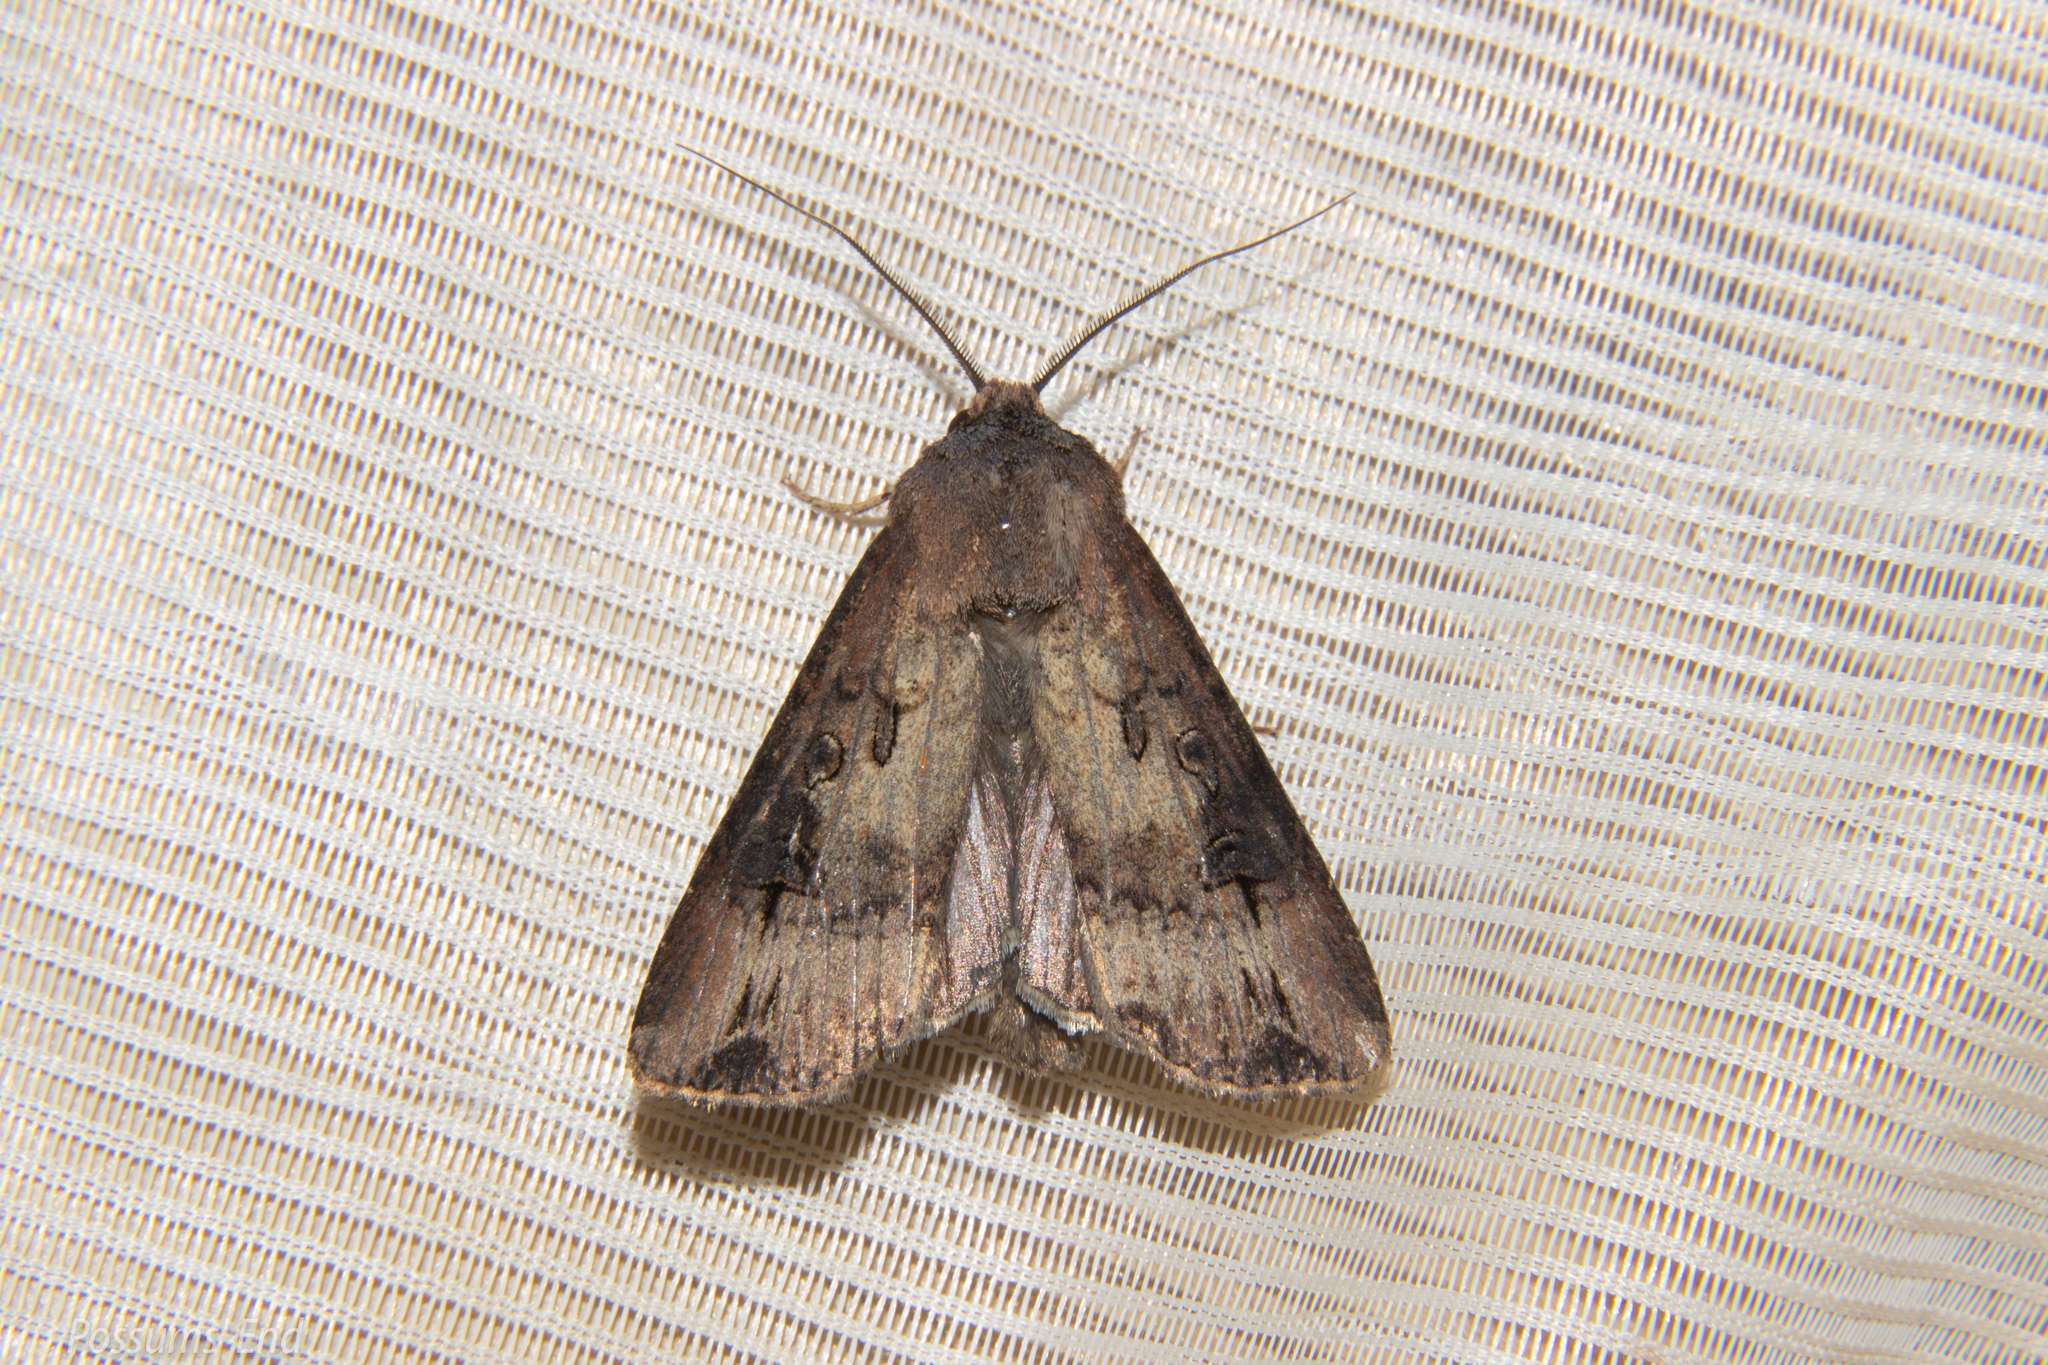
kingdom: Animalia
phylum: Arthropoda
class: Insecta
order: Lepidoptera
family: Noctuidae
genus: Agrotis
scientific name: Agrotis ipsilon
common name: Dark sword-grass
